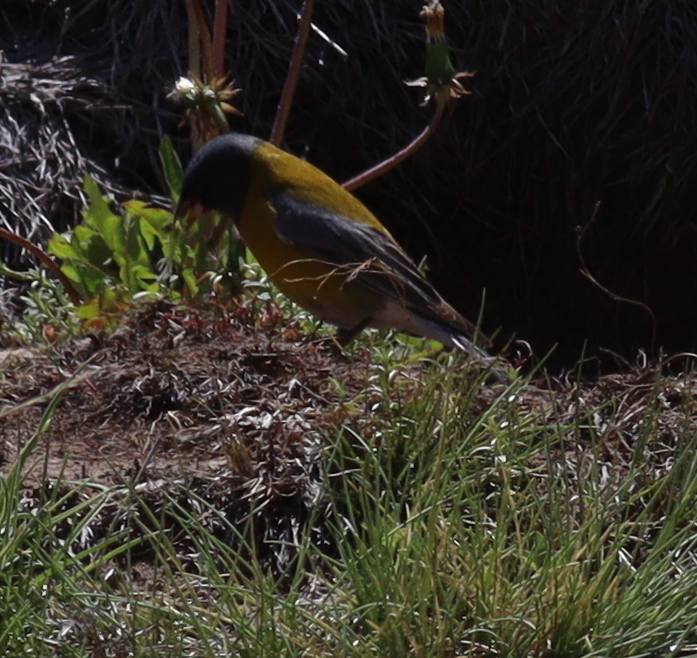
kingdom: Animalia
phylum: Chordata
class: Aves
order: Passeriformes
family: Thraupidae
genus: Phrygilus
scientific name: Phrygilus gayi
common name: Grey-hooded sierra finch
